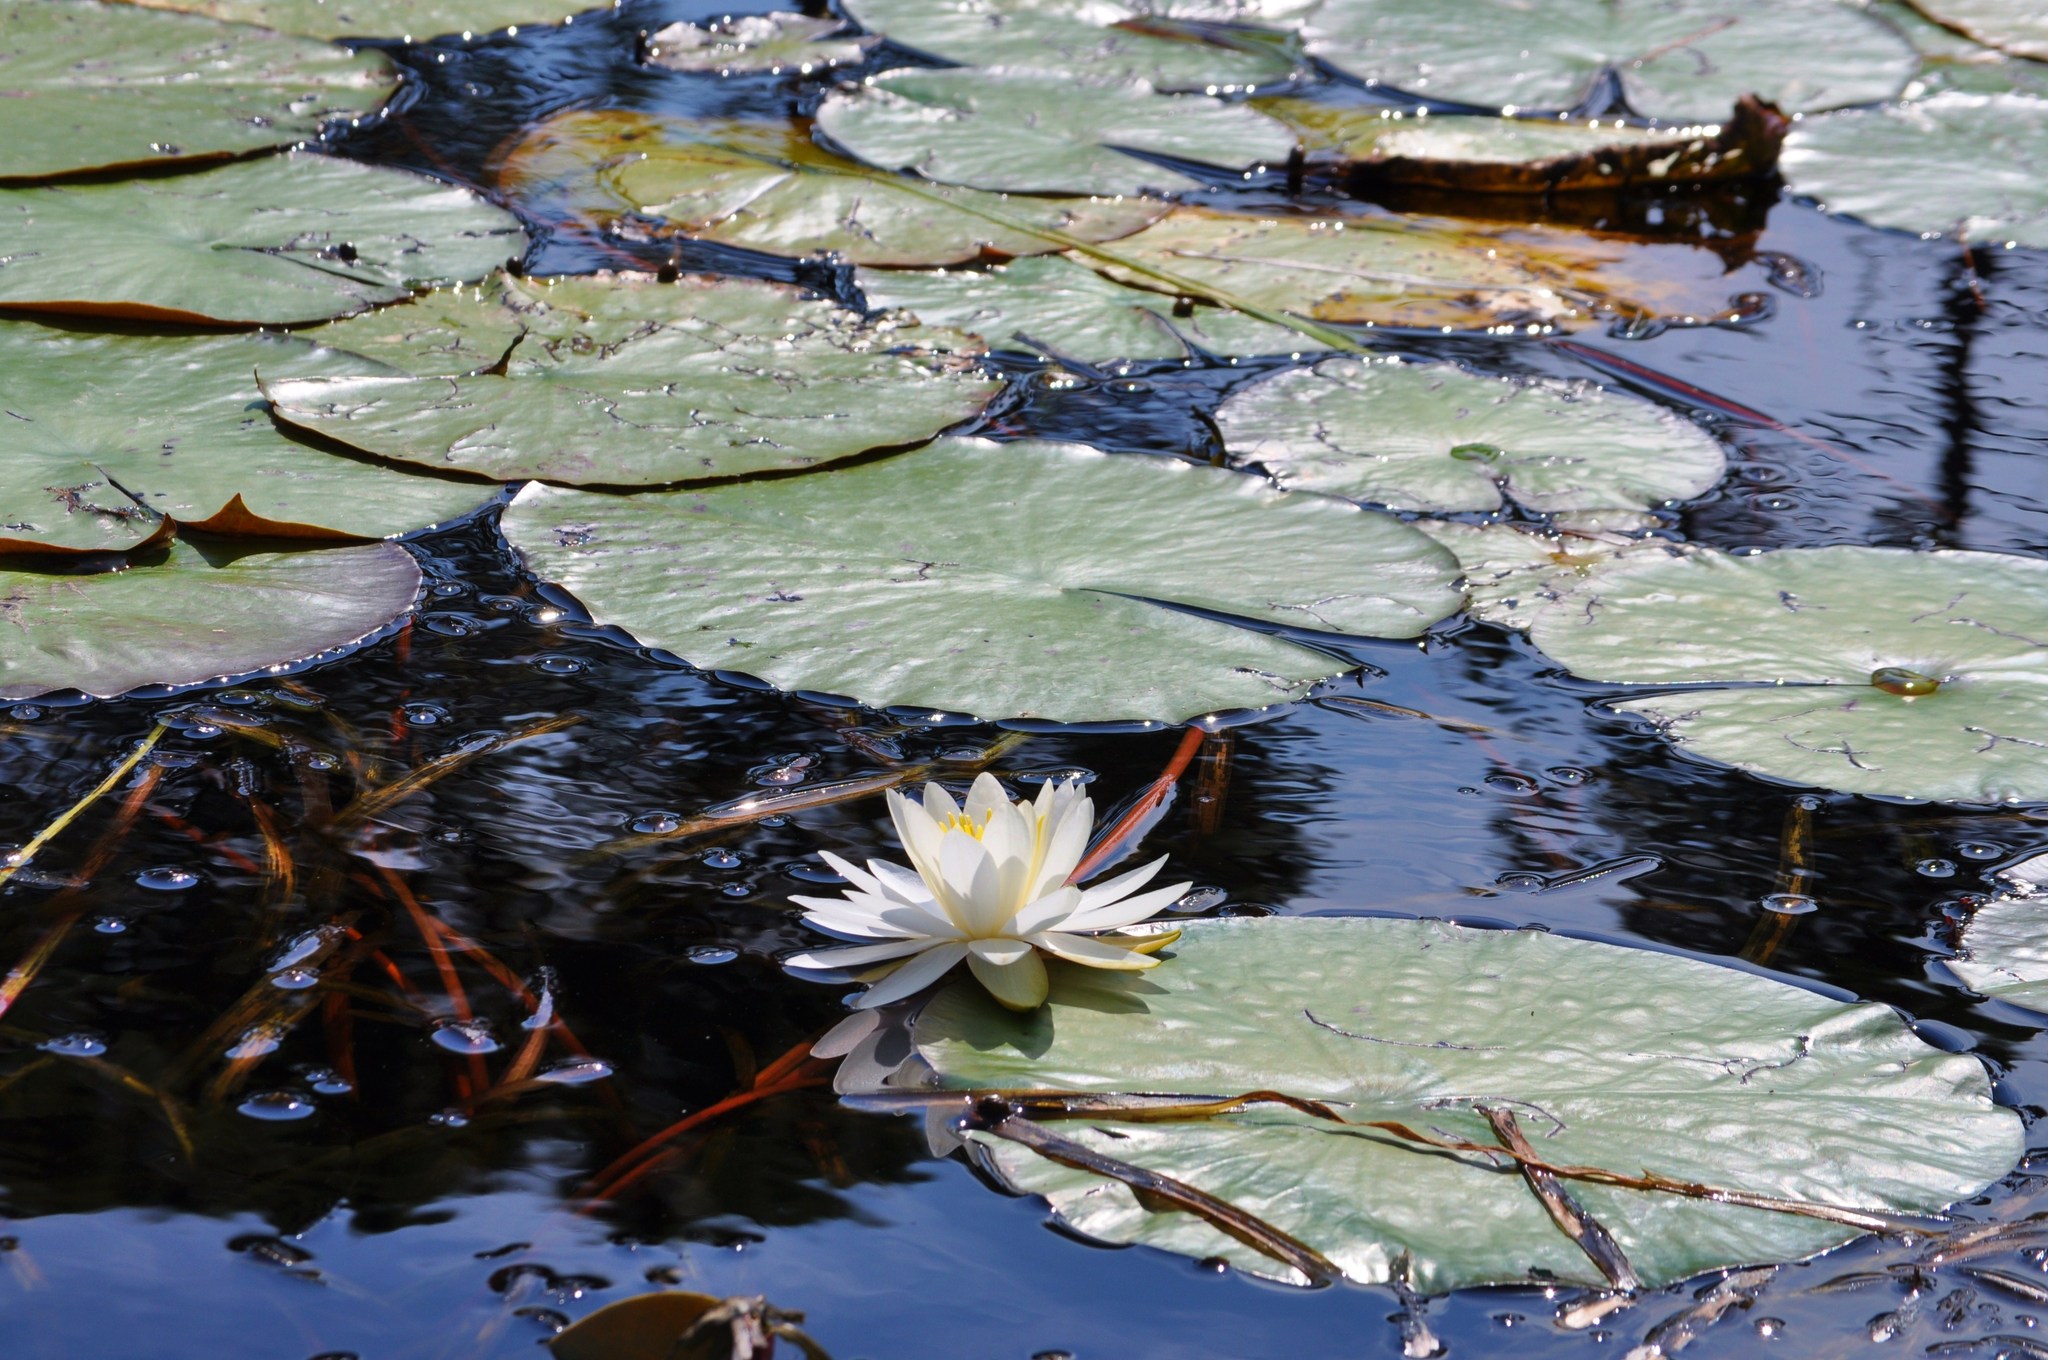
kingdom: Plantae
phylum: Tracheophyta
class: Magnoliopsida
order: Nymphaeales
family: Nymphaeaceae
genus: Nymphaea
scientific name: Nymphaea odorata
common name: Fragrant water-lily
